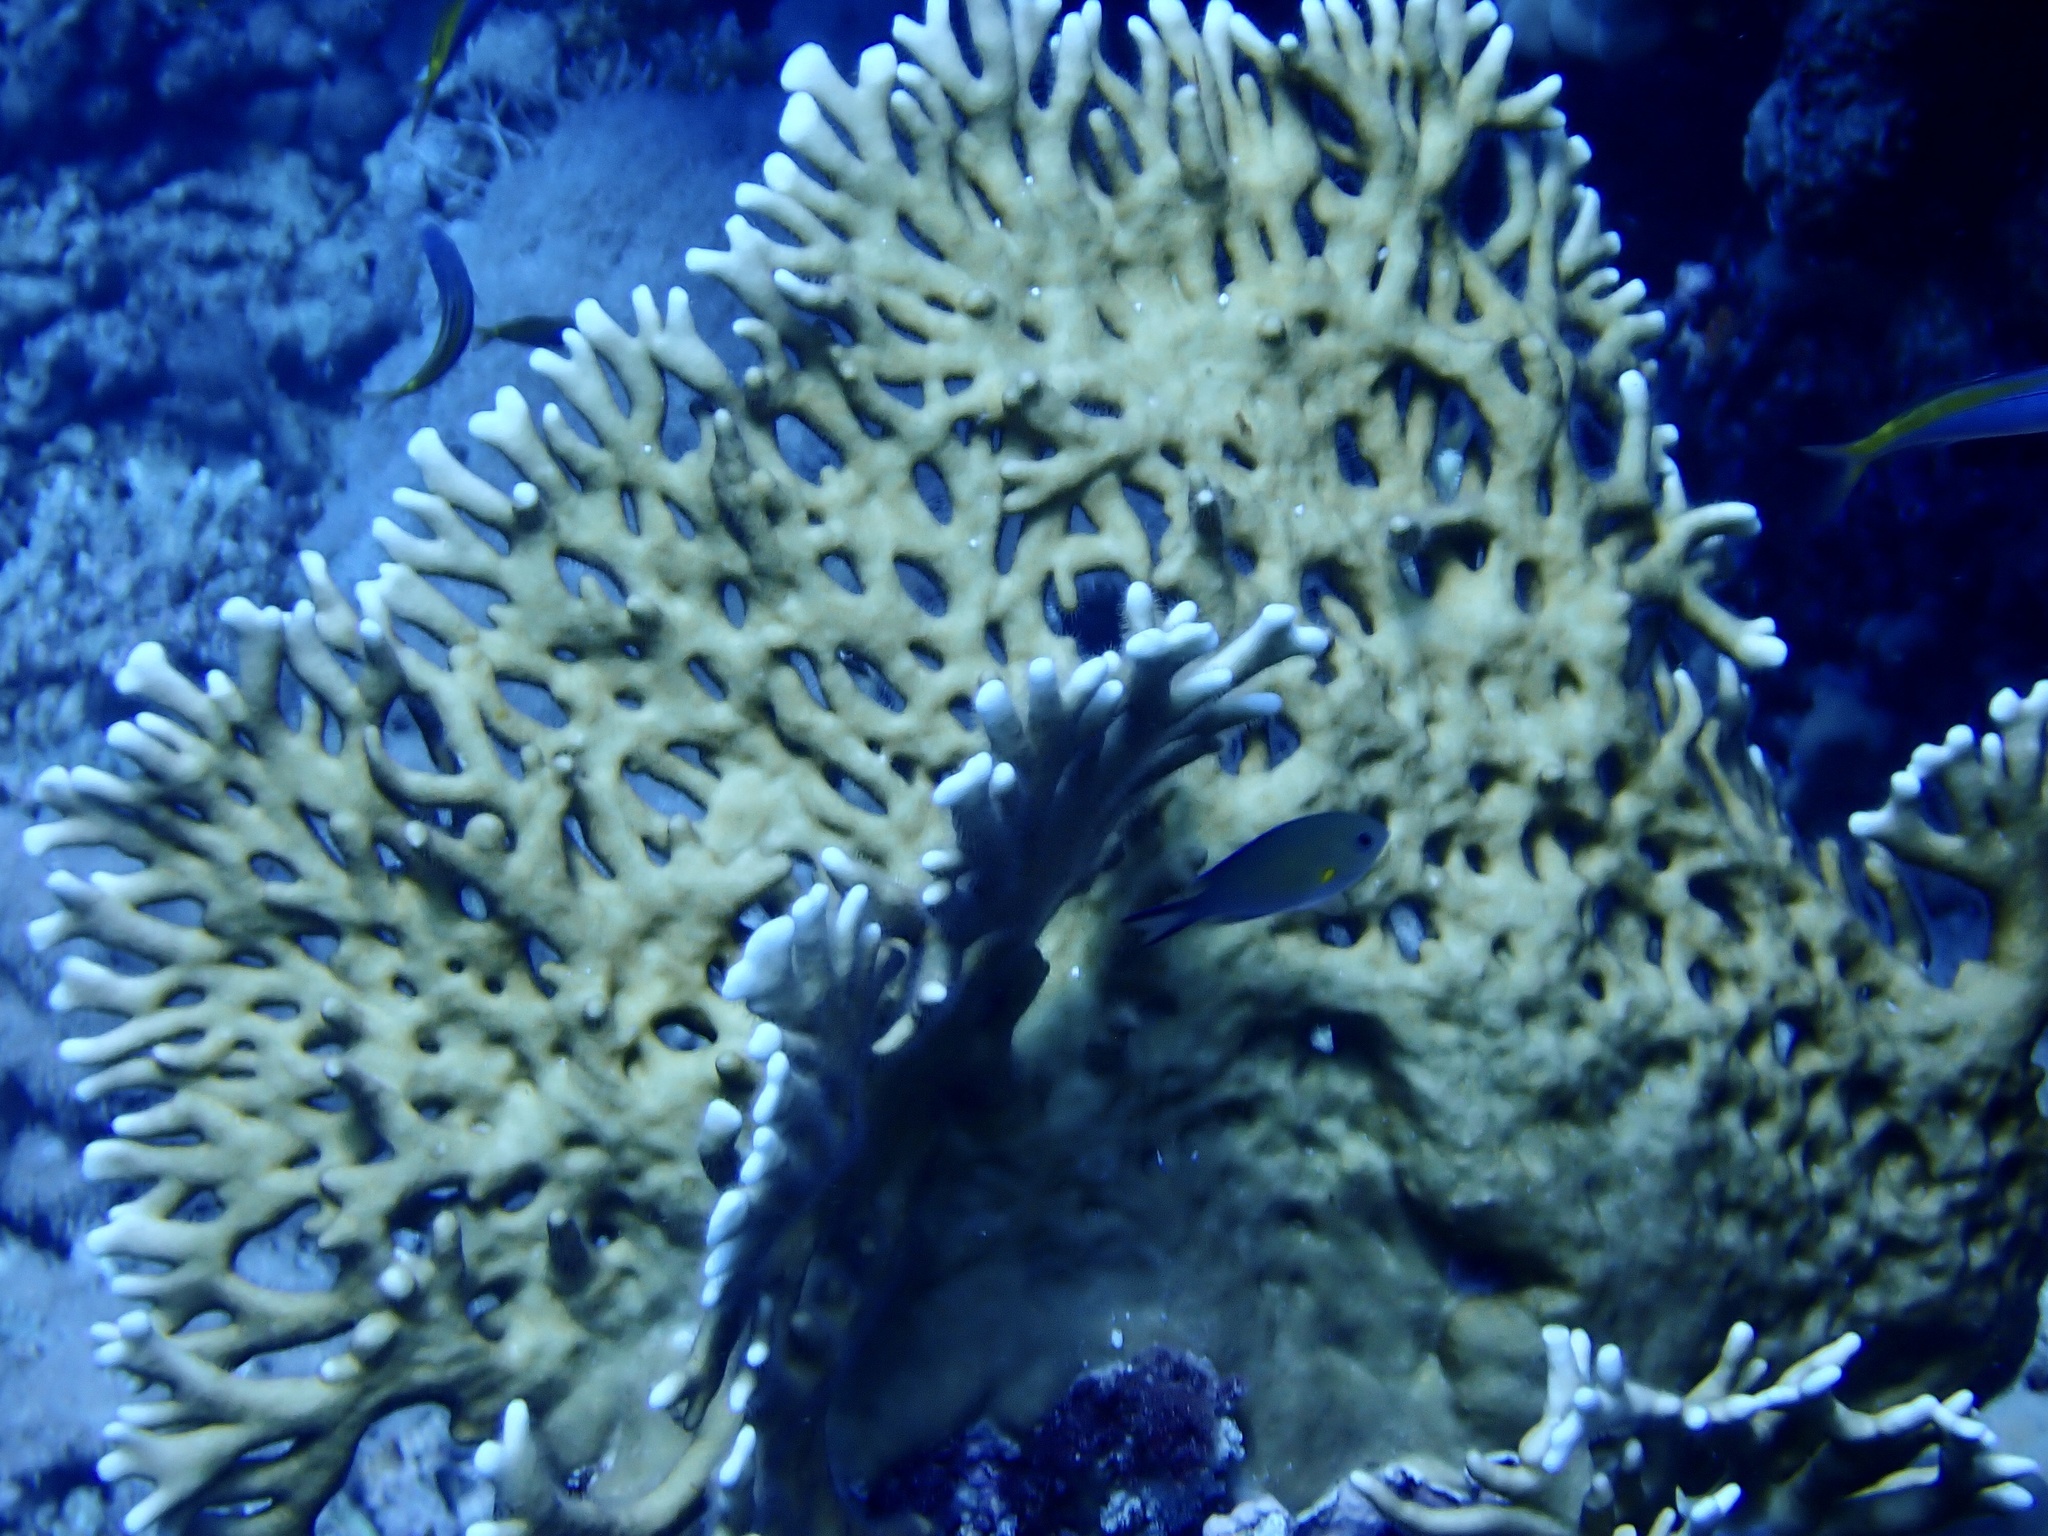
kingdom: Animalia
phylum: Cnidaria
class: Hydrozoa
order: Anthoathecata
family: Milleporidae
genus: Millepora
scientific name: Millepora dichotoma
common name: Ramified fire coral
